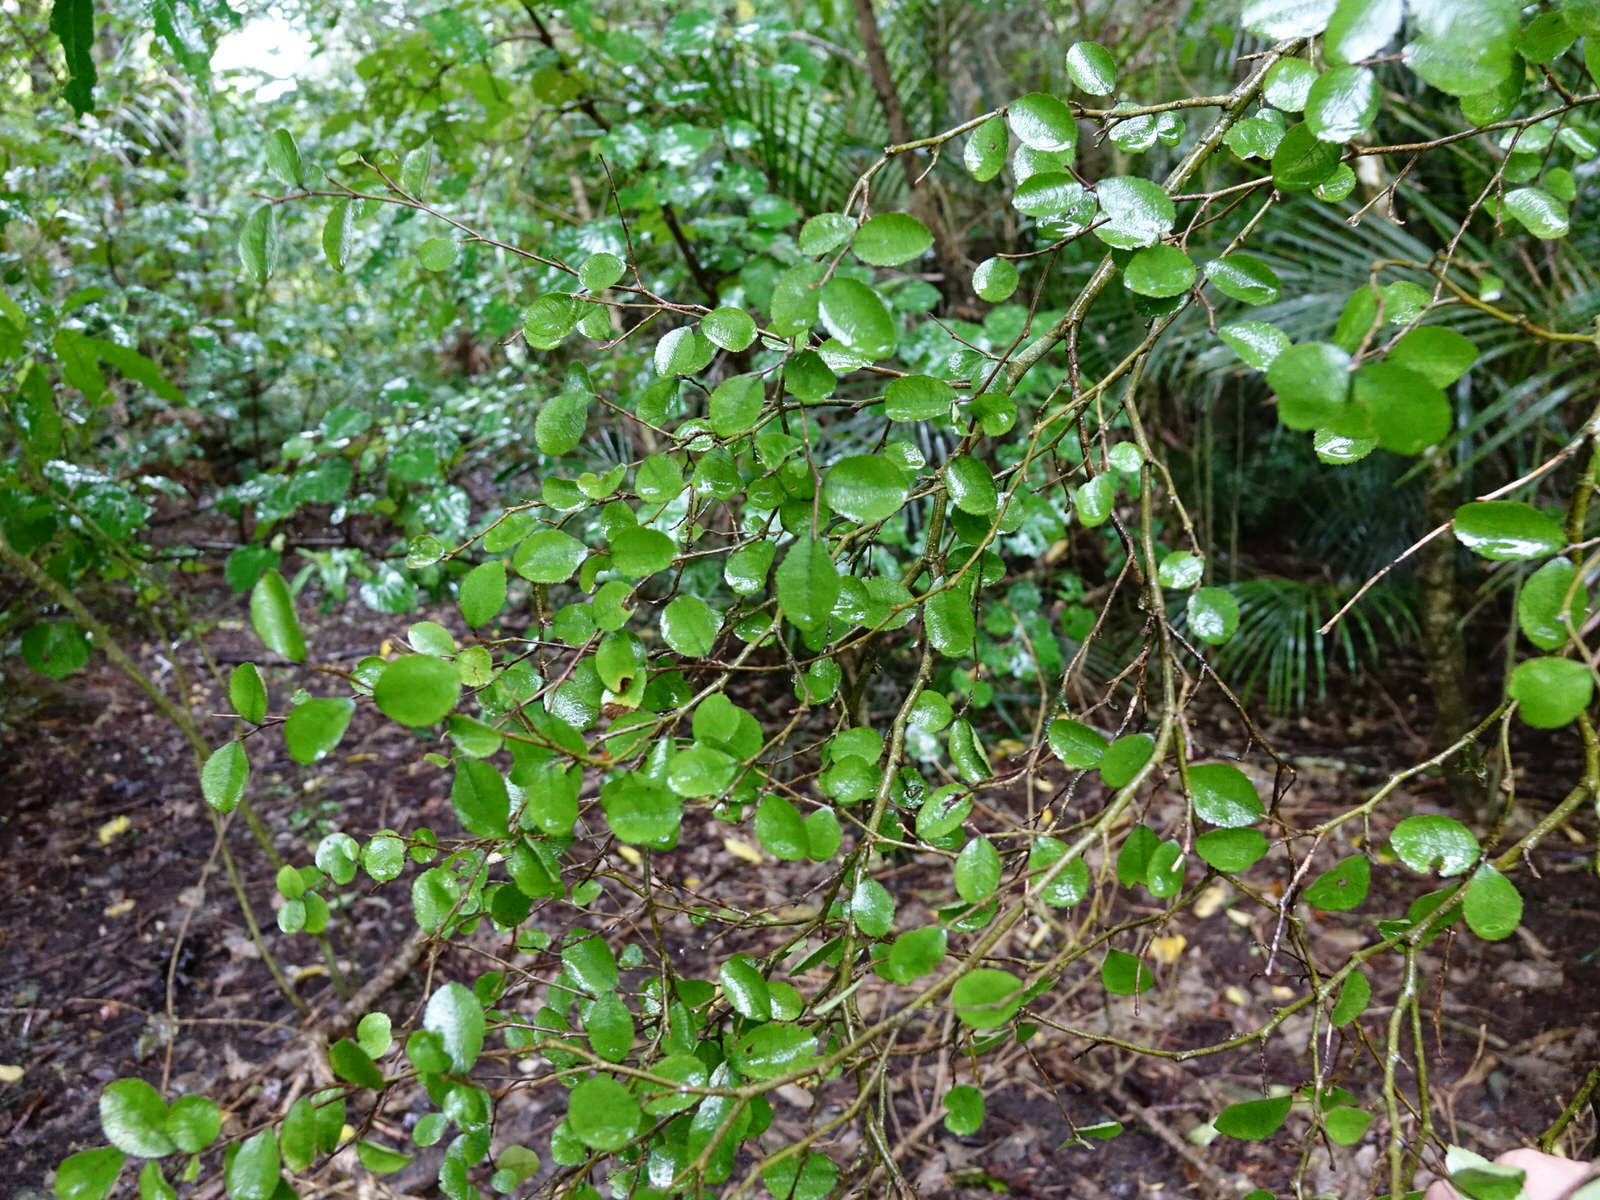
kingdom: Plantae
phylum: Tracheophyta
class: Magnoliopsida
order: Rosales
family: Moraceae
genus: Paratrophis
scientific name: Paratrophis microphylla
